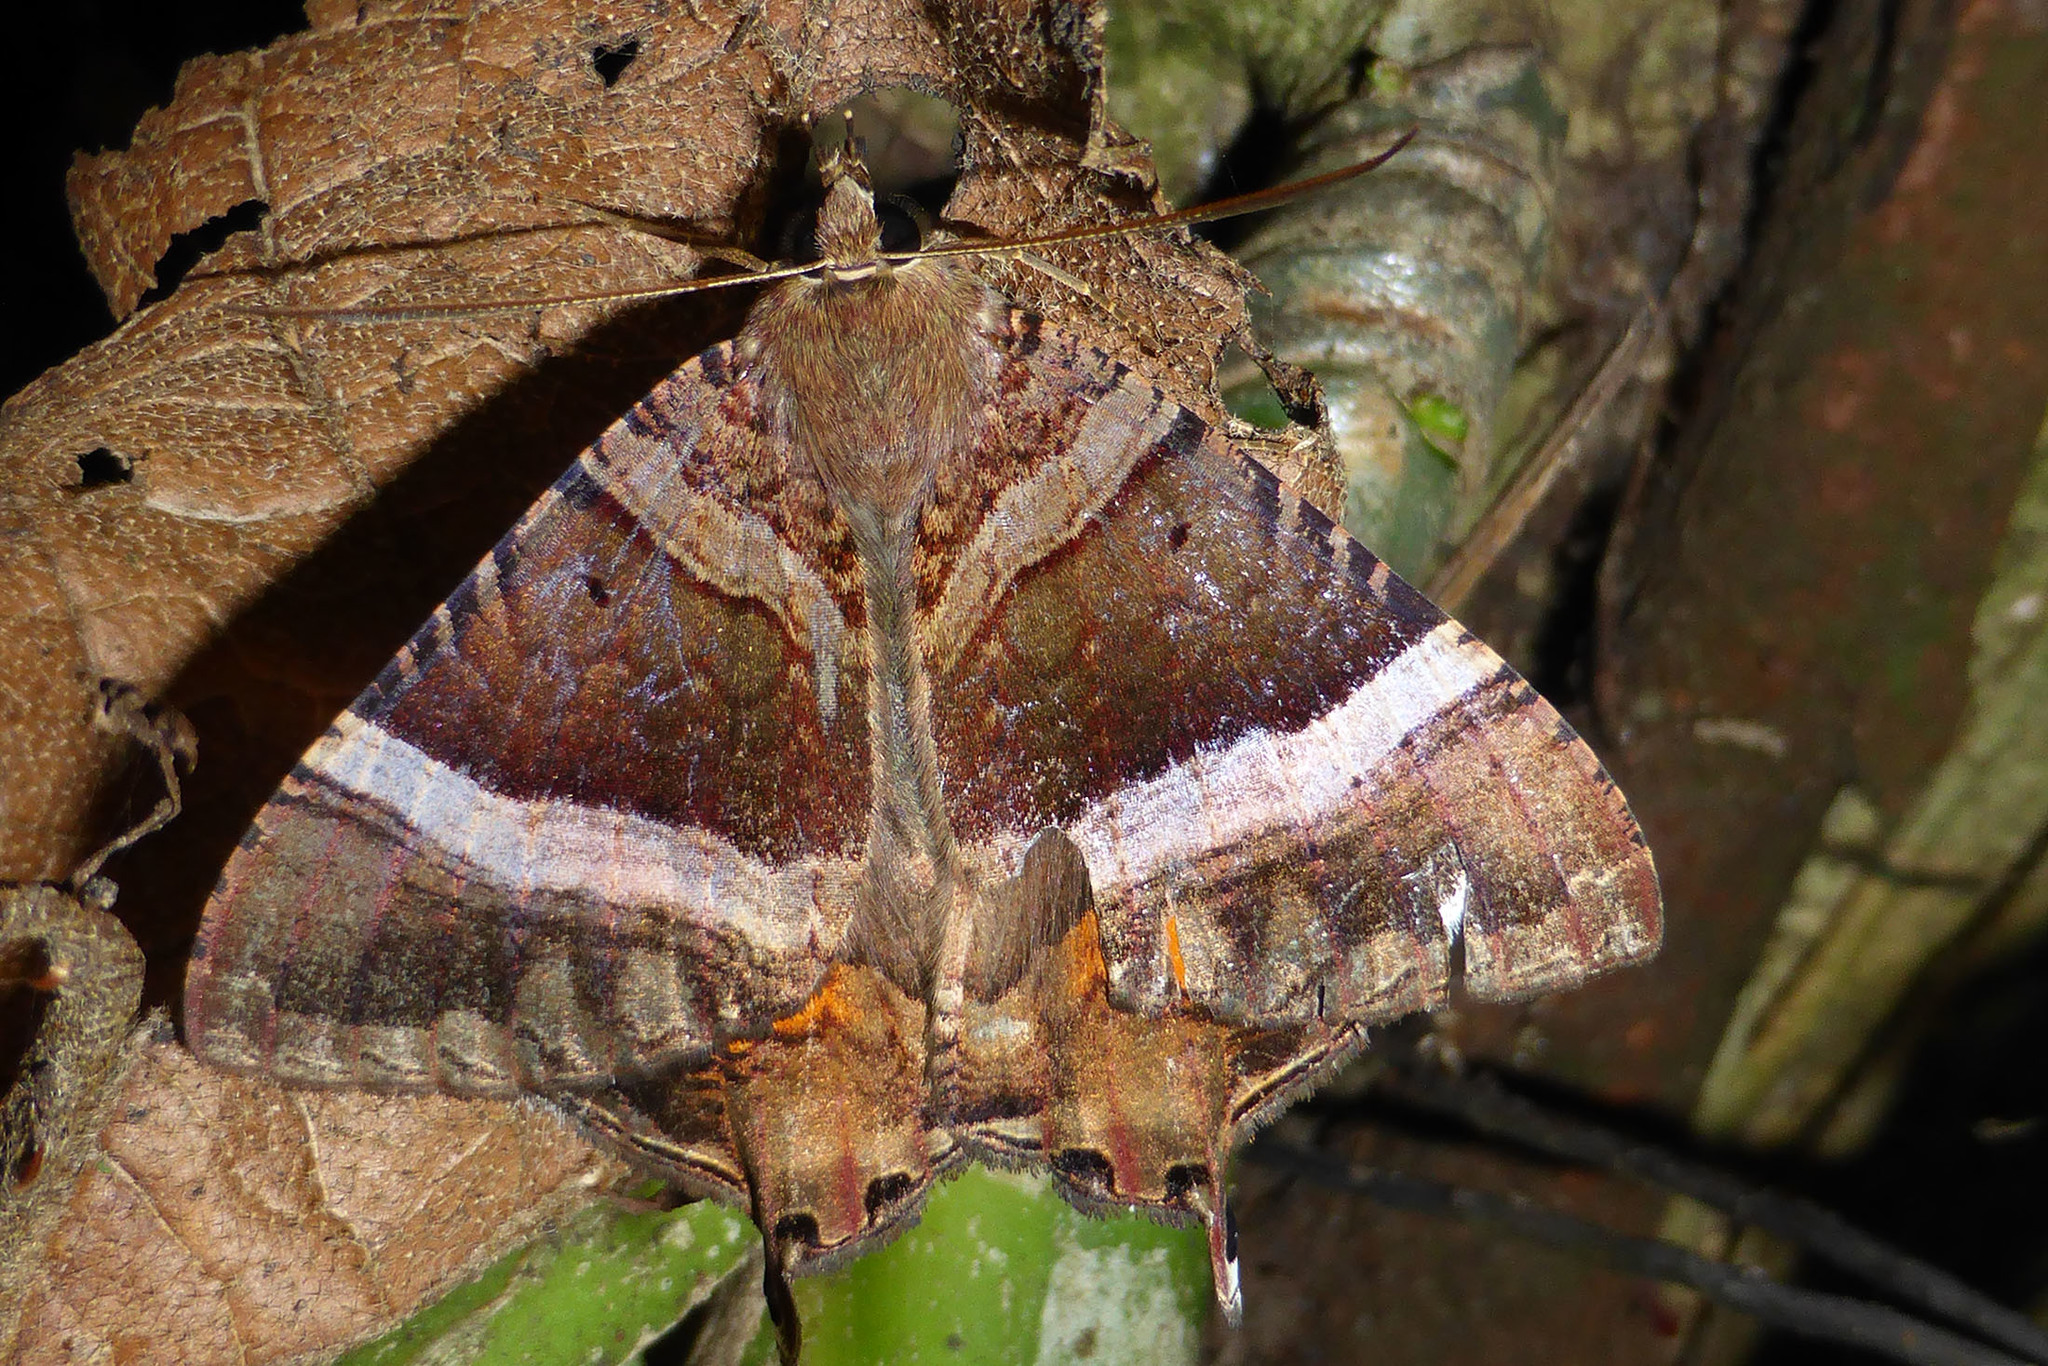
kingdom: Animalia
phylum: Arthropoda
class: Insecta
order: Lepidoptera
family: Sematuridae
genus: Coronidia
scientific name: Coronidia leachii
